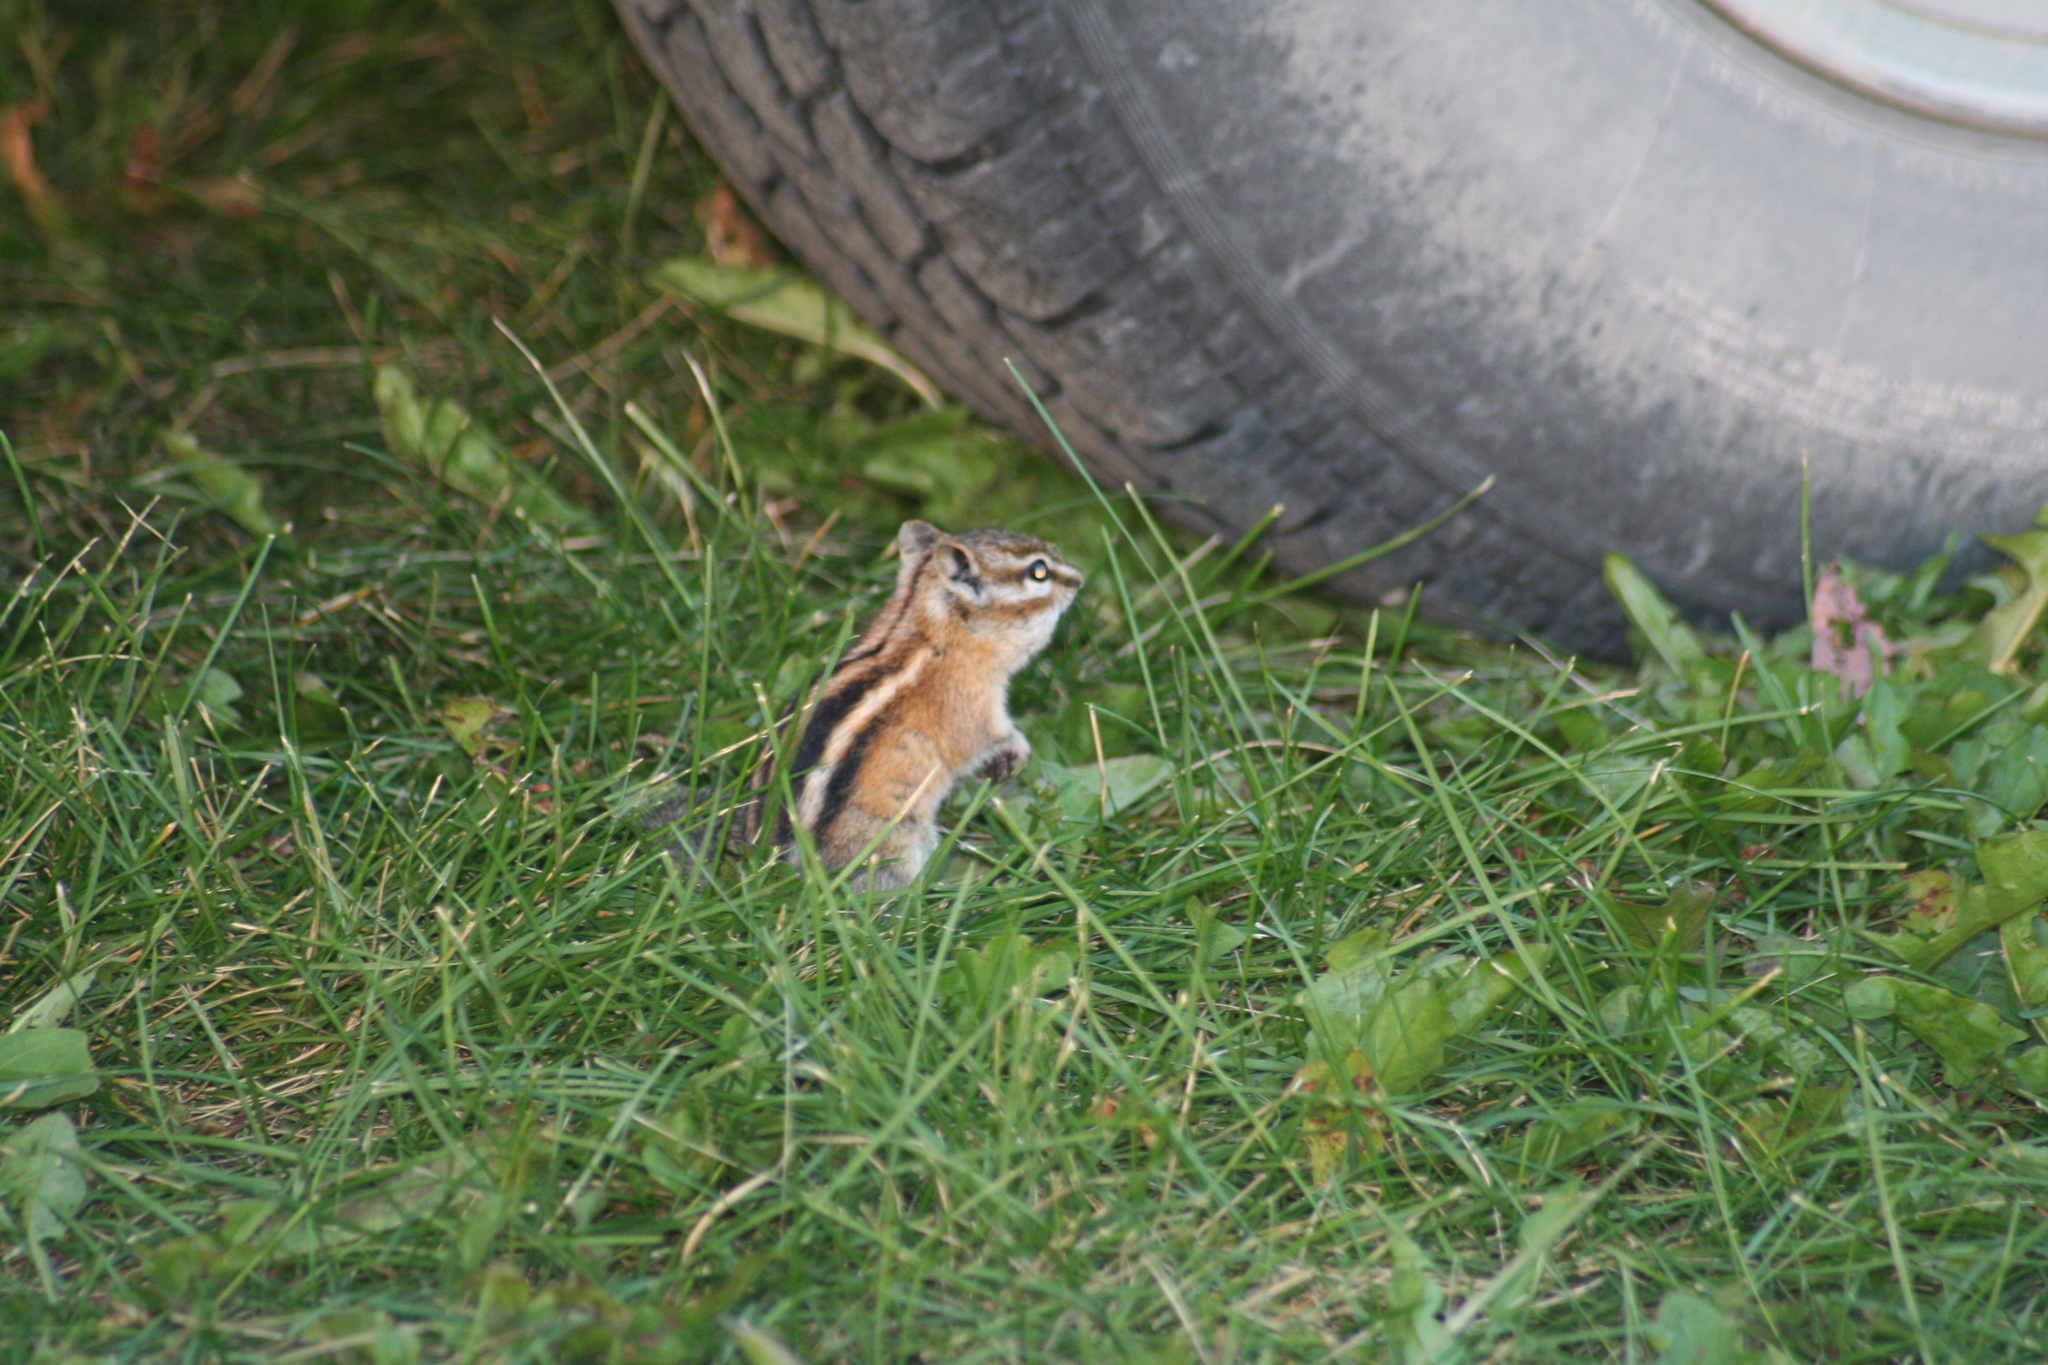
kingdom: Animalia
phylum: Chordata
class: Mammalia
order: Rodentia
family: Sciuridae
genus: Tamias
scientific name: Tamias minimus
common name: Least chipmunk
